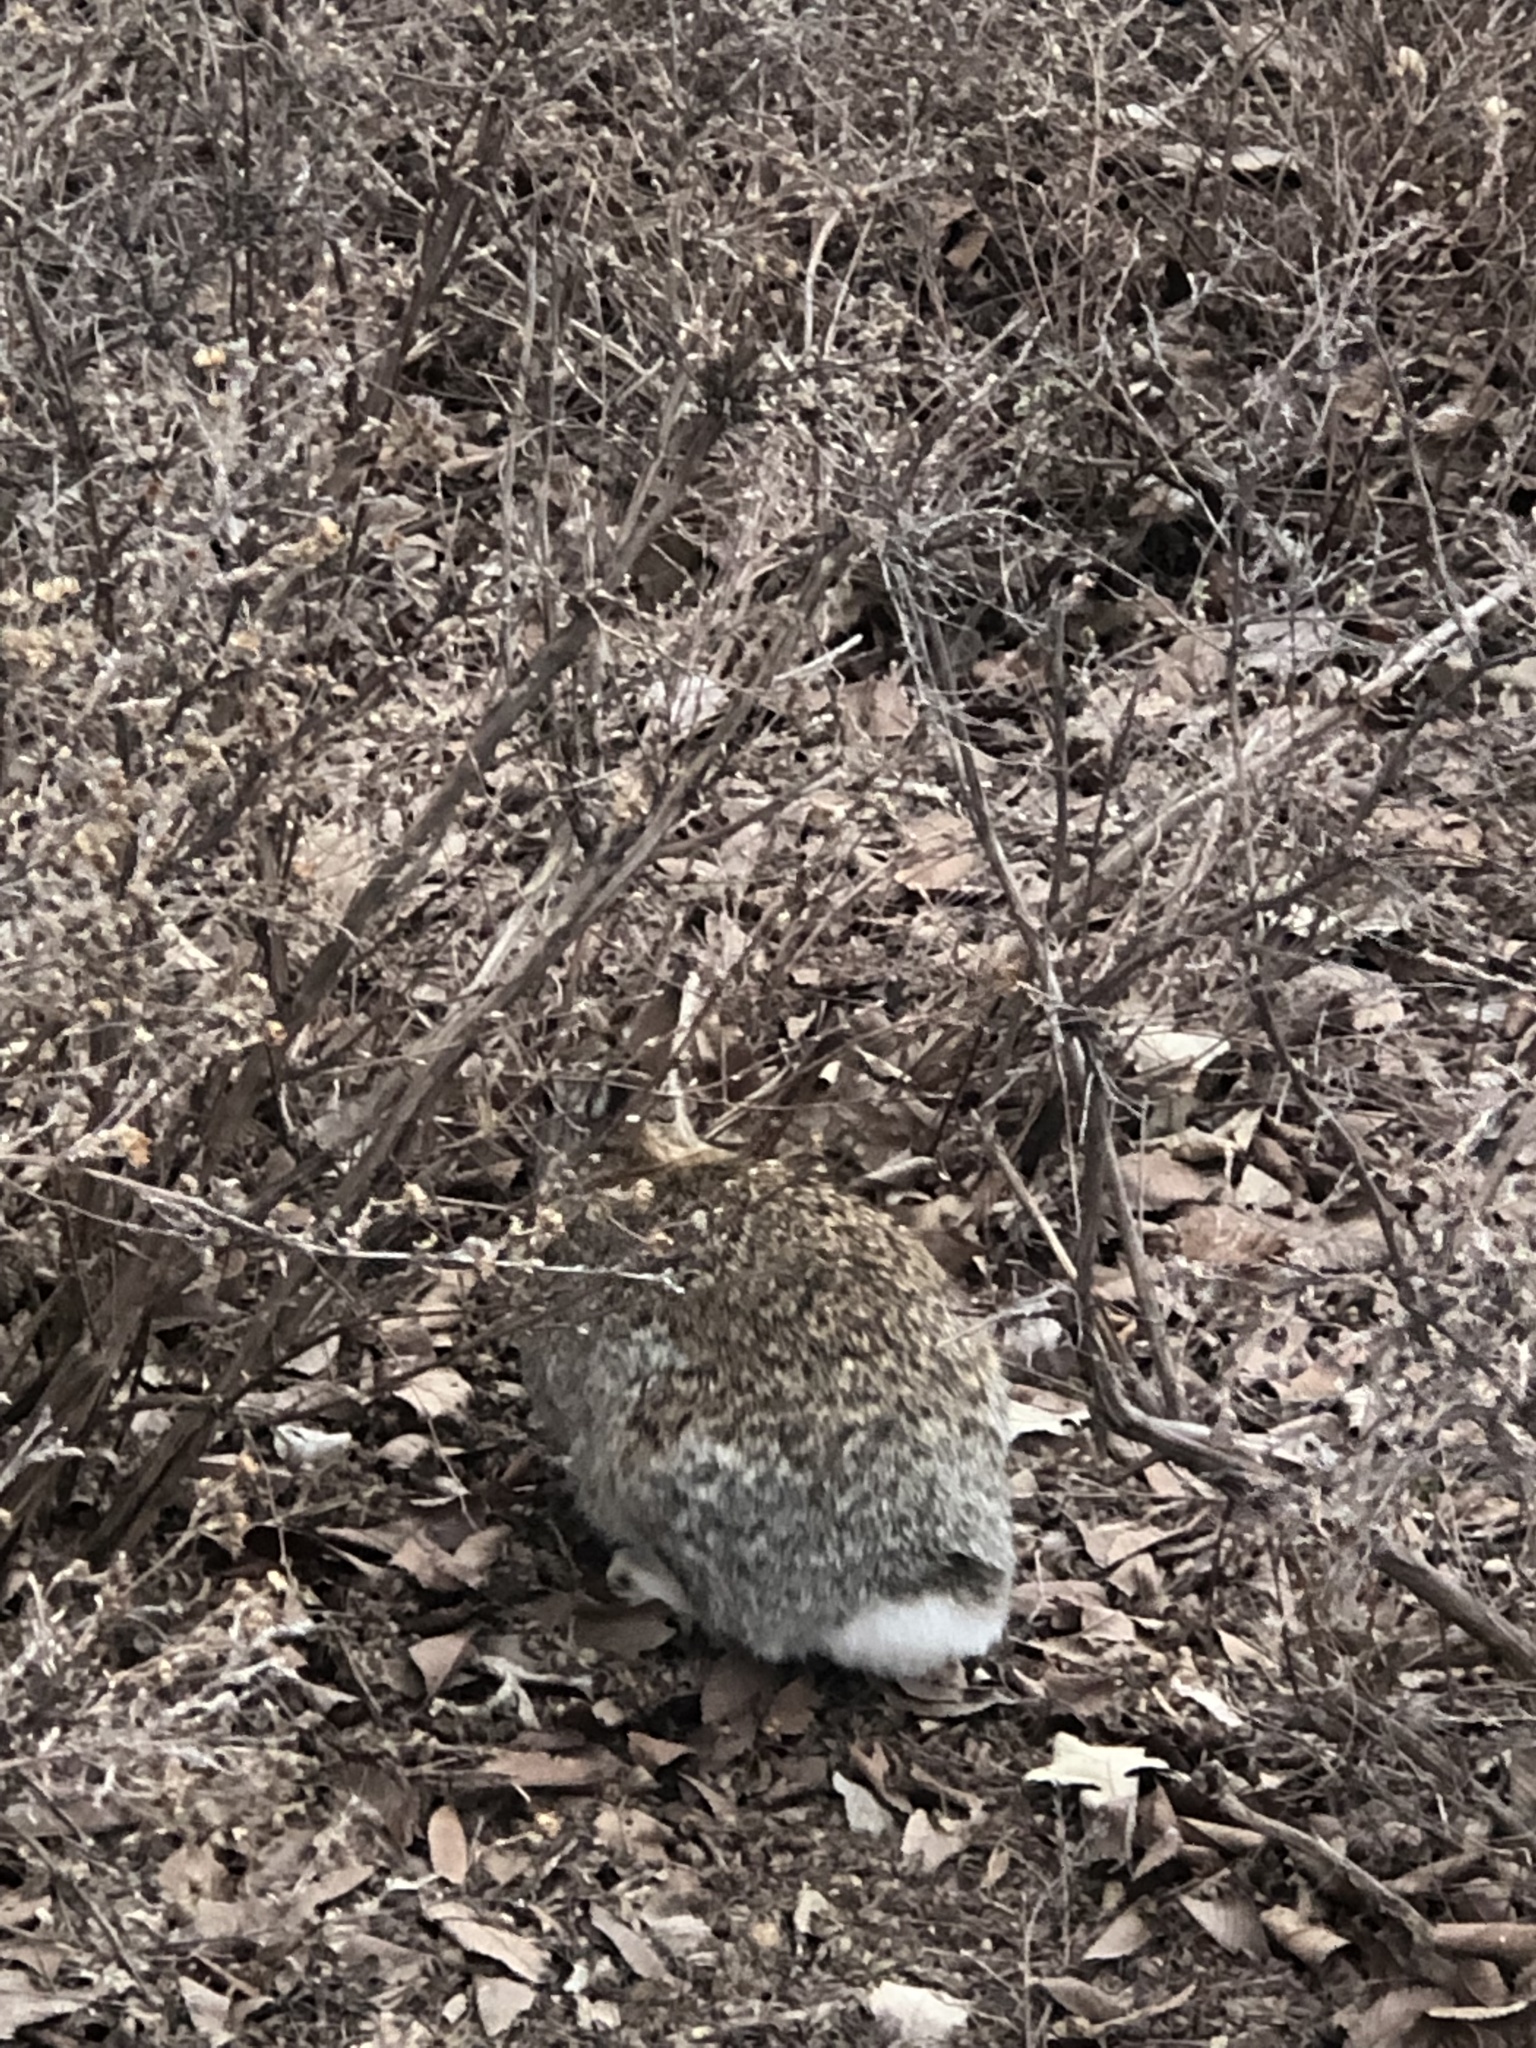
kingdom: Animalia
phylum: Chordata
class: Mammalia
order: Lagomorpha
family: Leporidae
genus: Sylvilagus
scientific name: Sylvilagus floridanus
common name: Eastern cottontail
